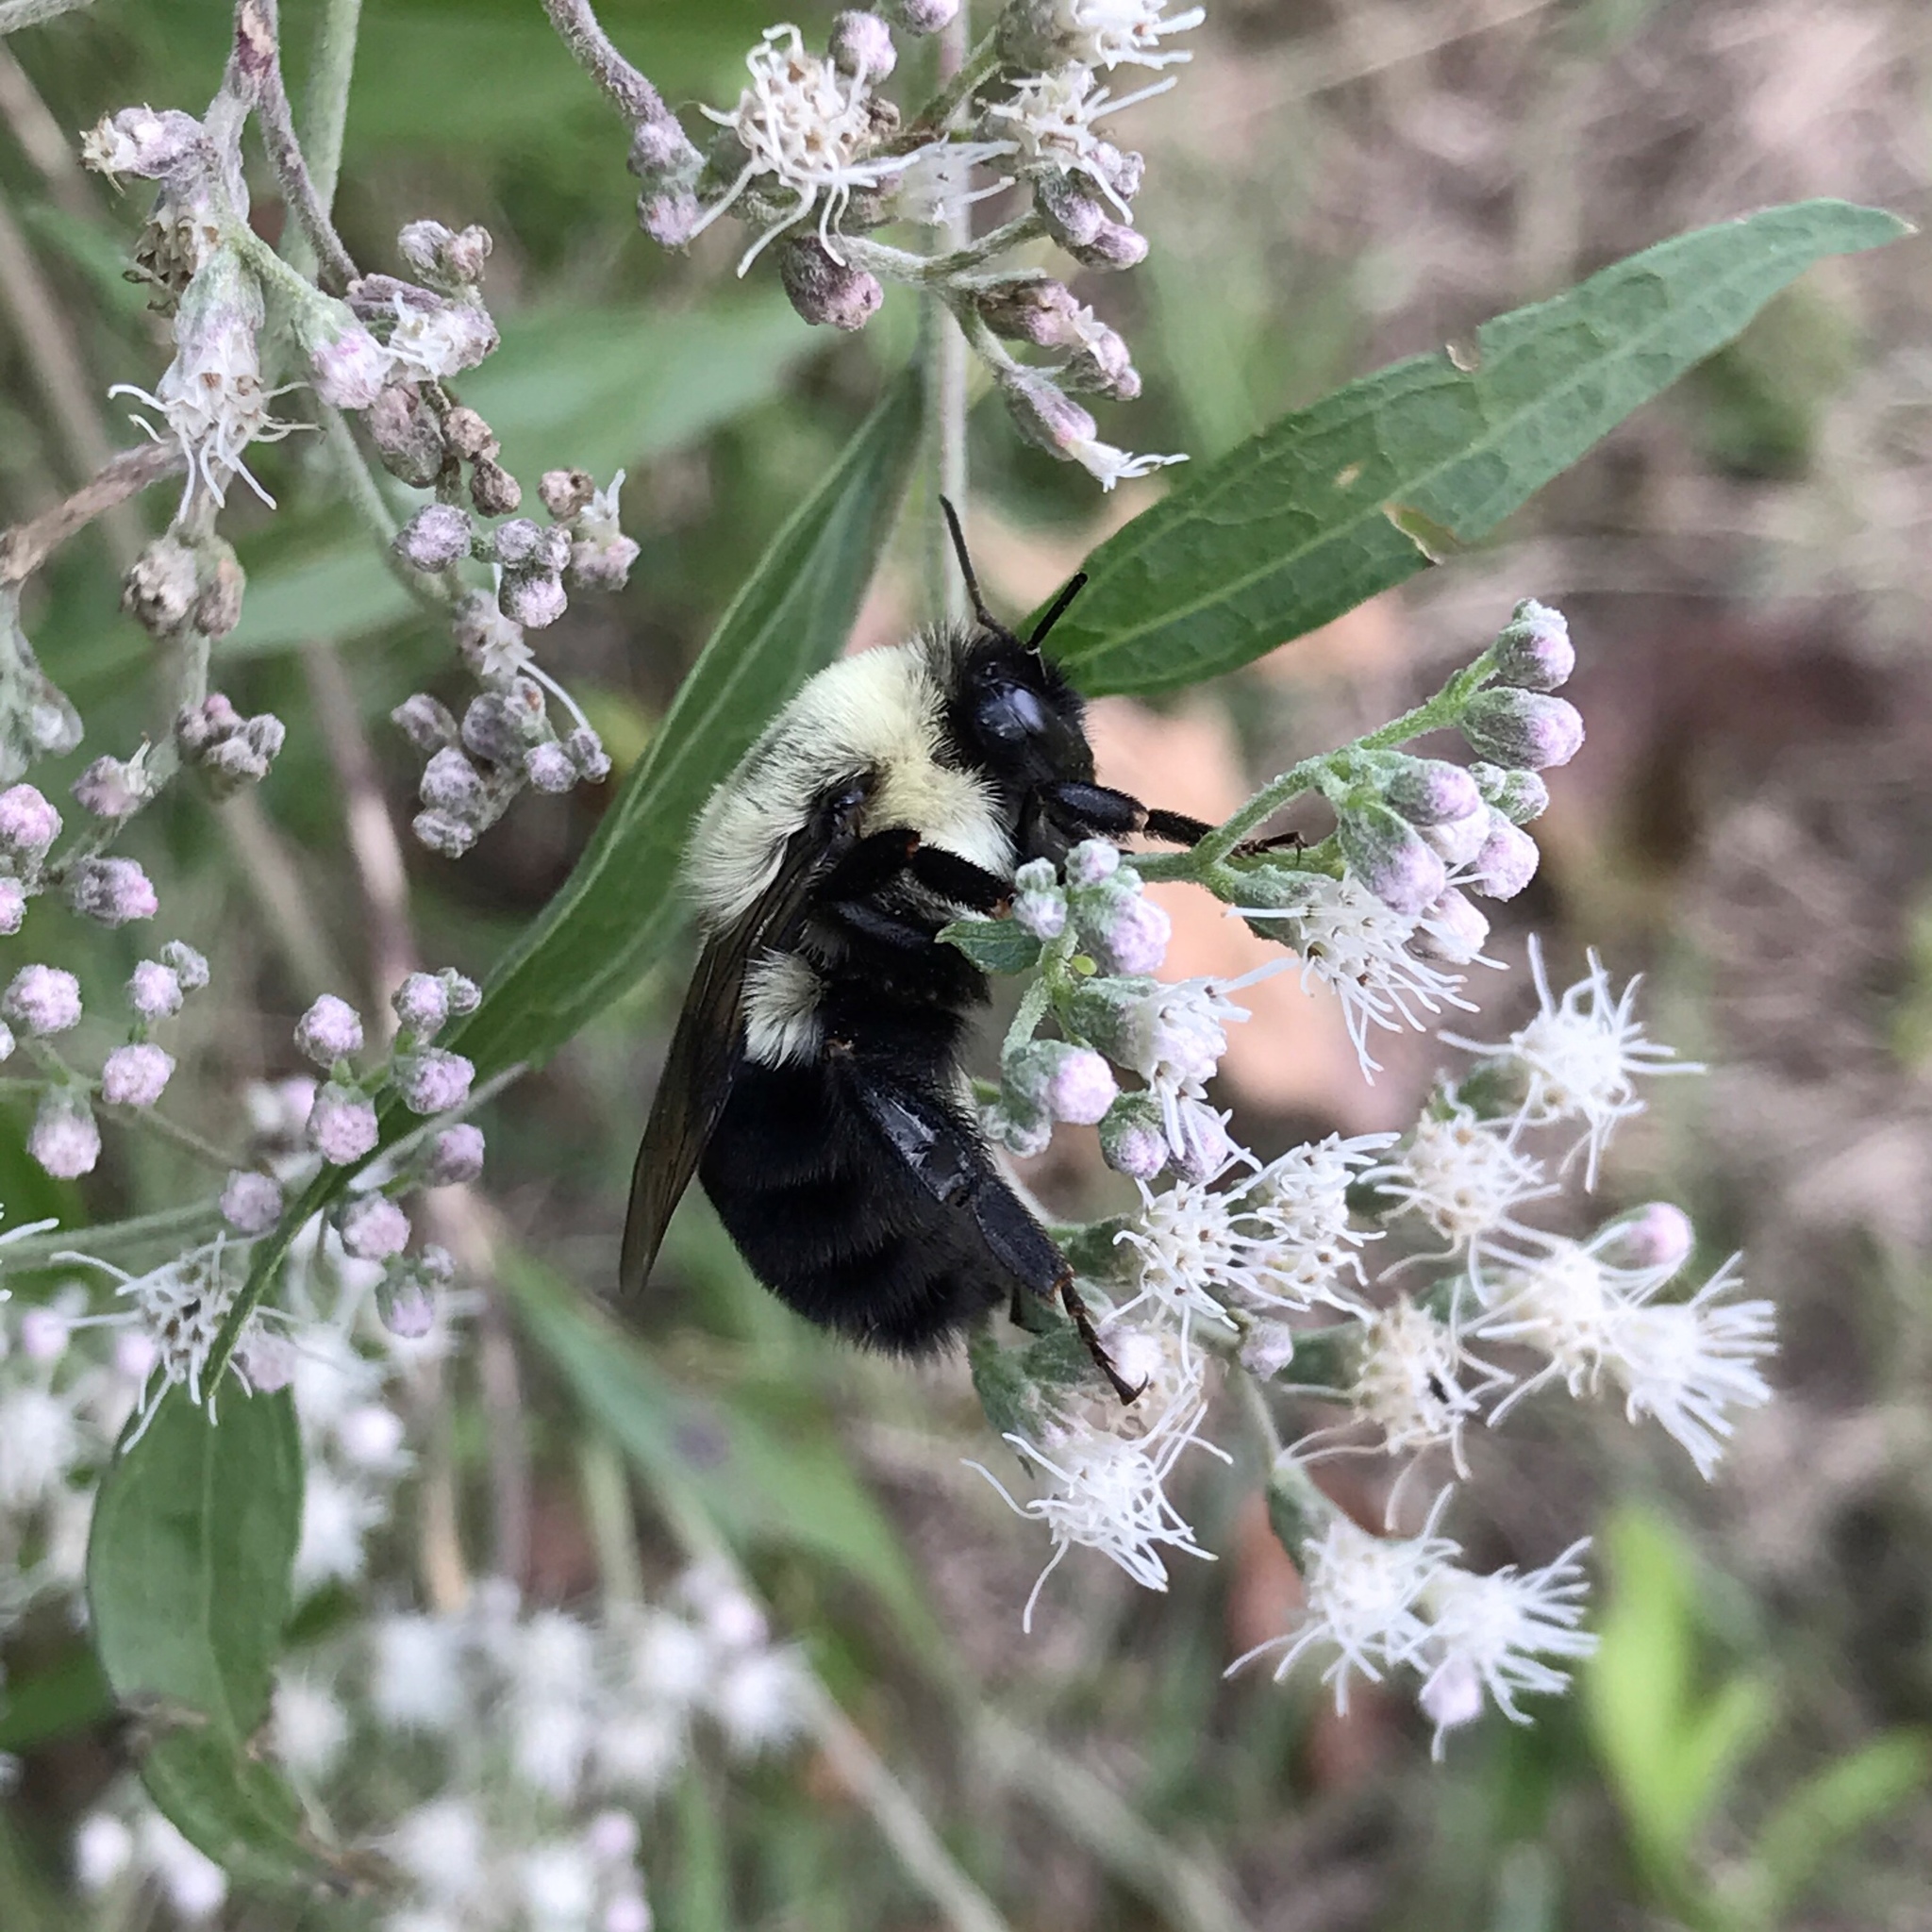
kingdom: Animalia
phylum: Arthropoda
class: Insecta
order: Hymenoptera
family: Apidae
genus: Bombus
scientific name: Bombus impatiens
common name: Common eastern bumble bee
